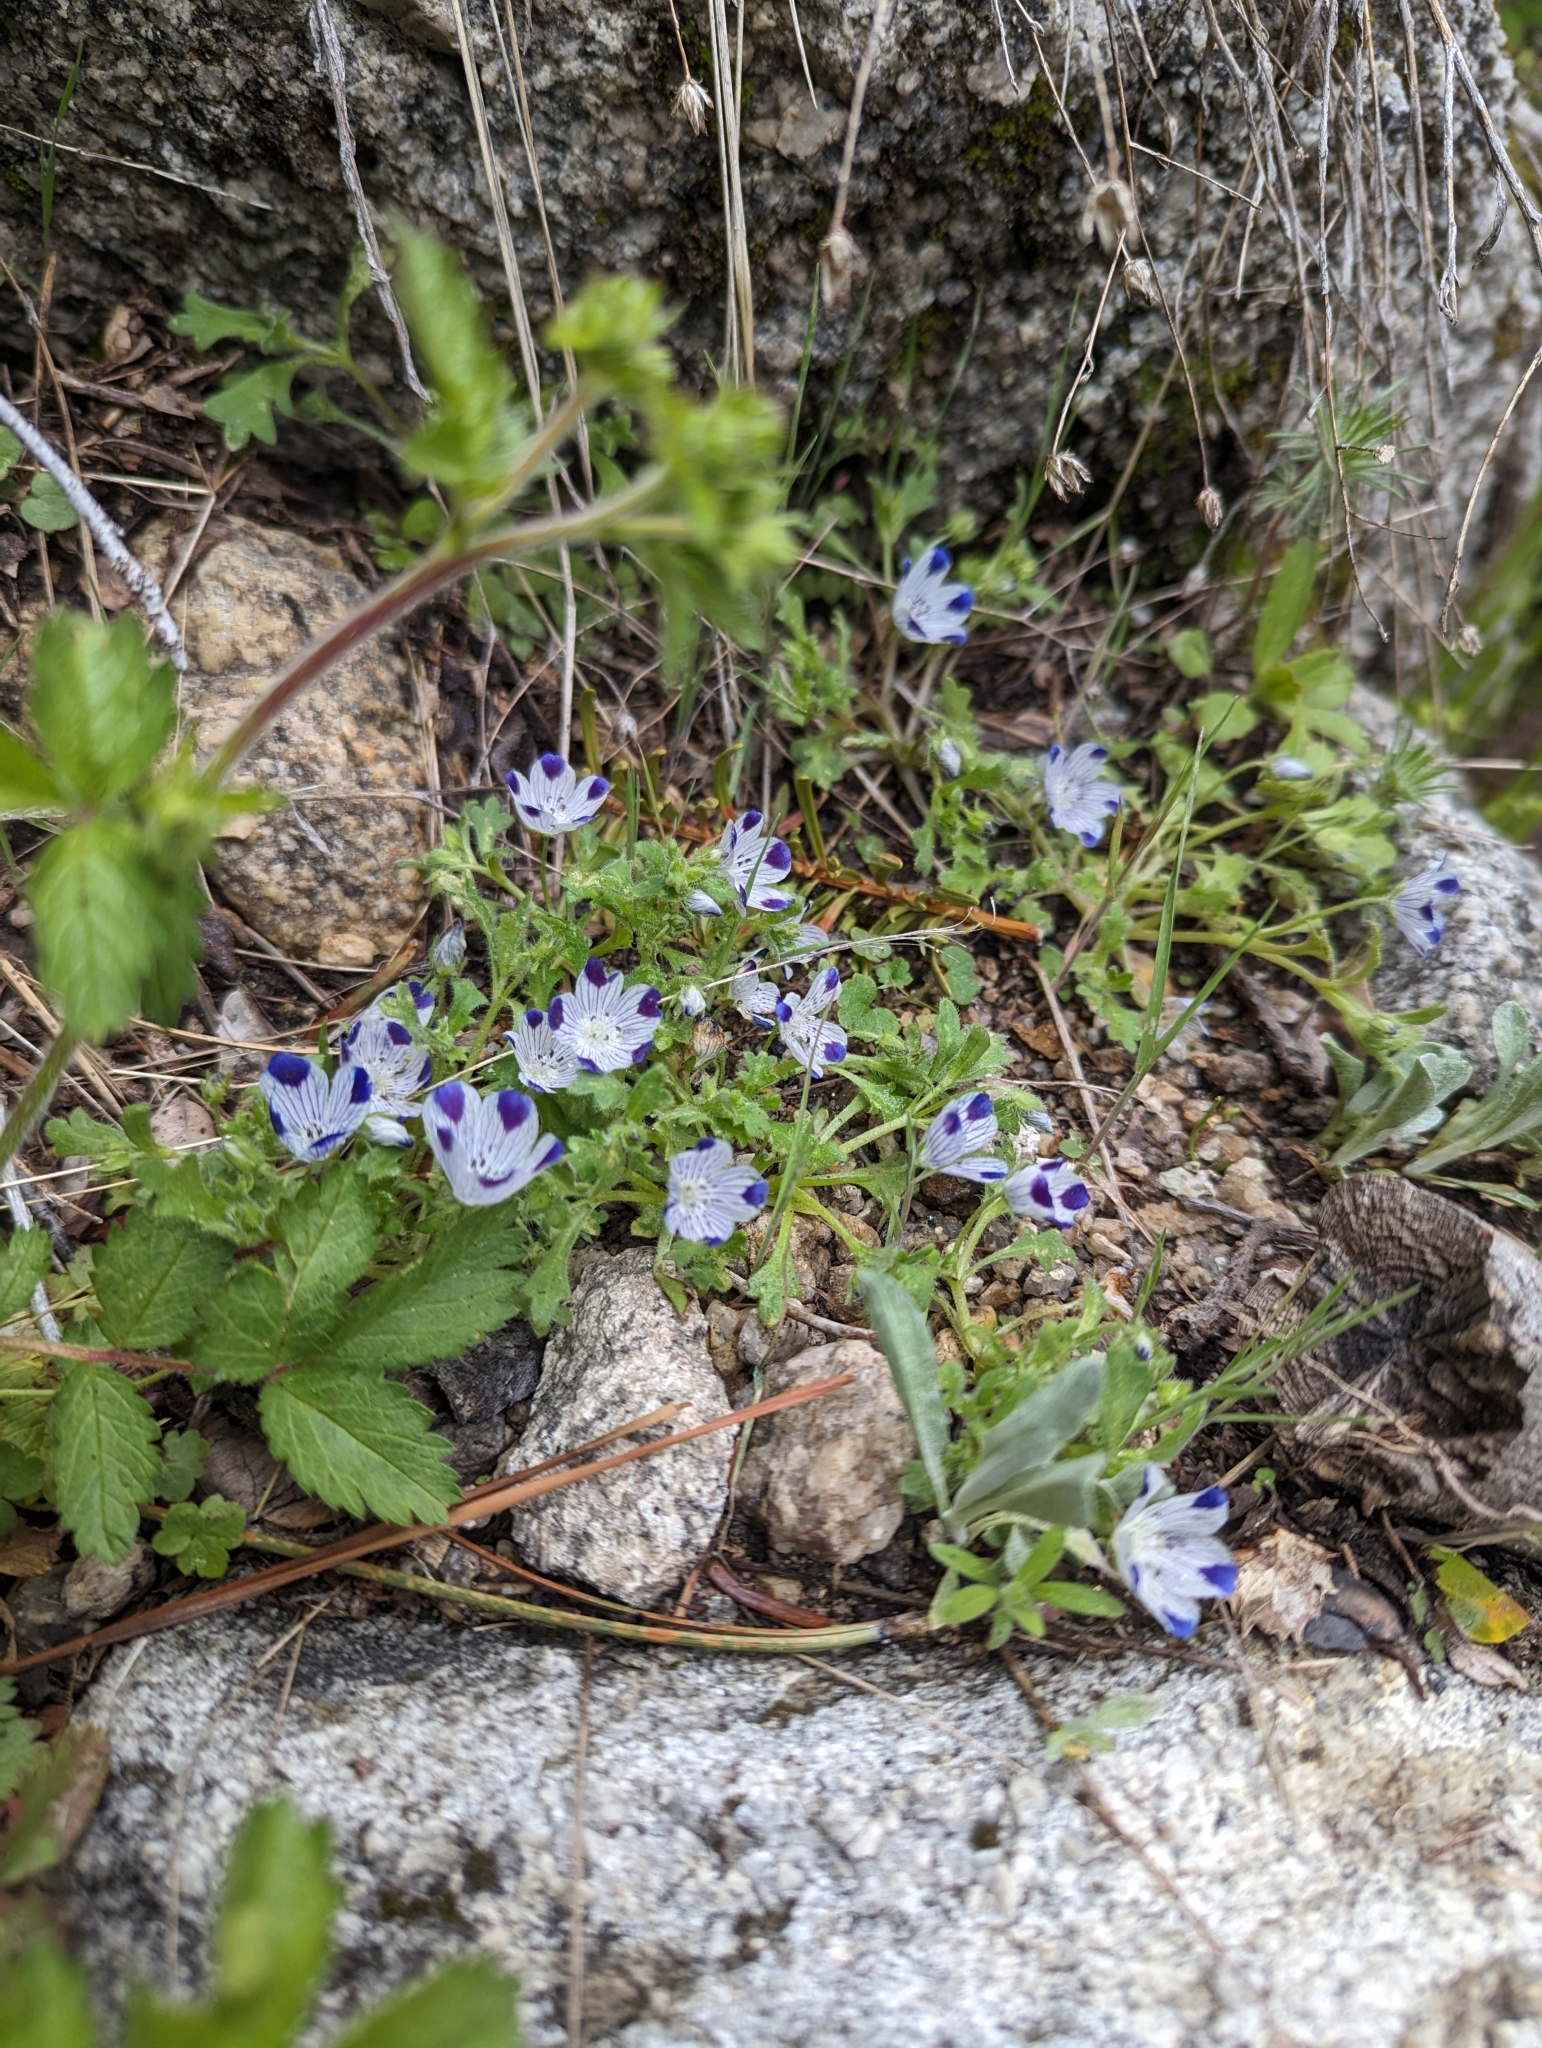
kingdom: Plantae
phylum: Tracheophyta
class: Magnoliopsida
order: Boraginales
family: Hydrophyllaceae
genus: Nemophila
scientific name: Nemophila maculata
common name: Fivespot
